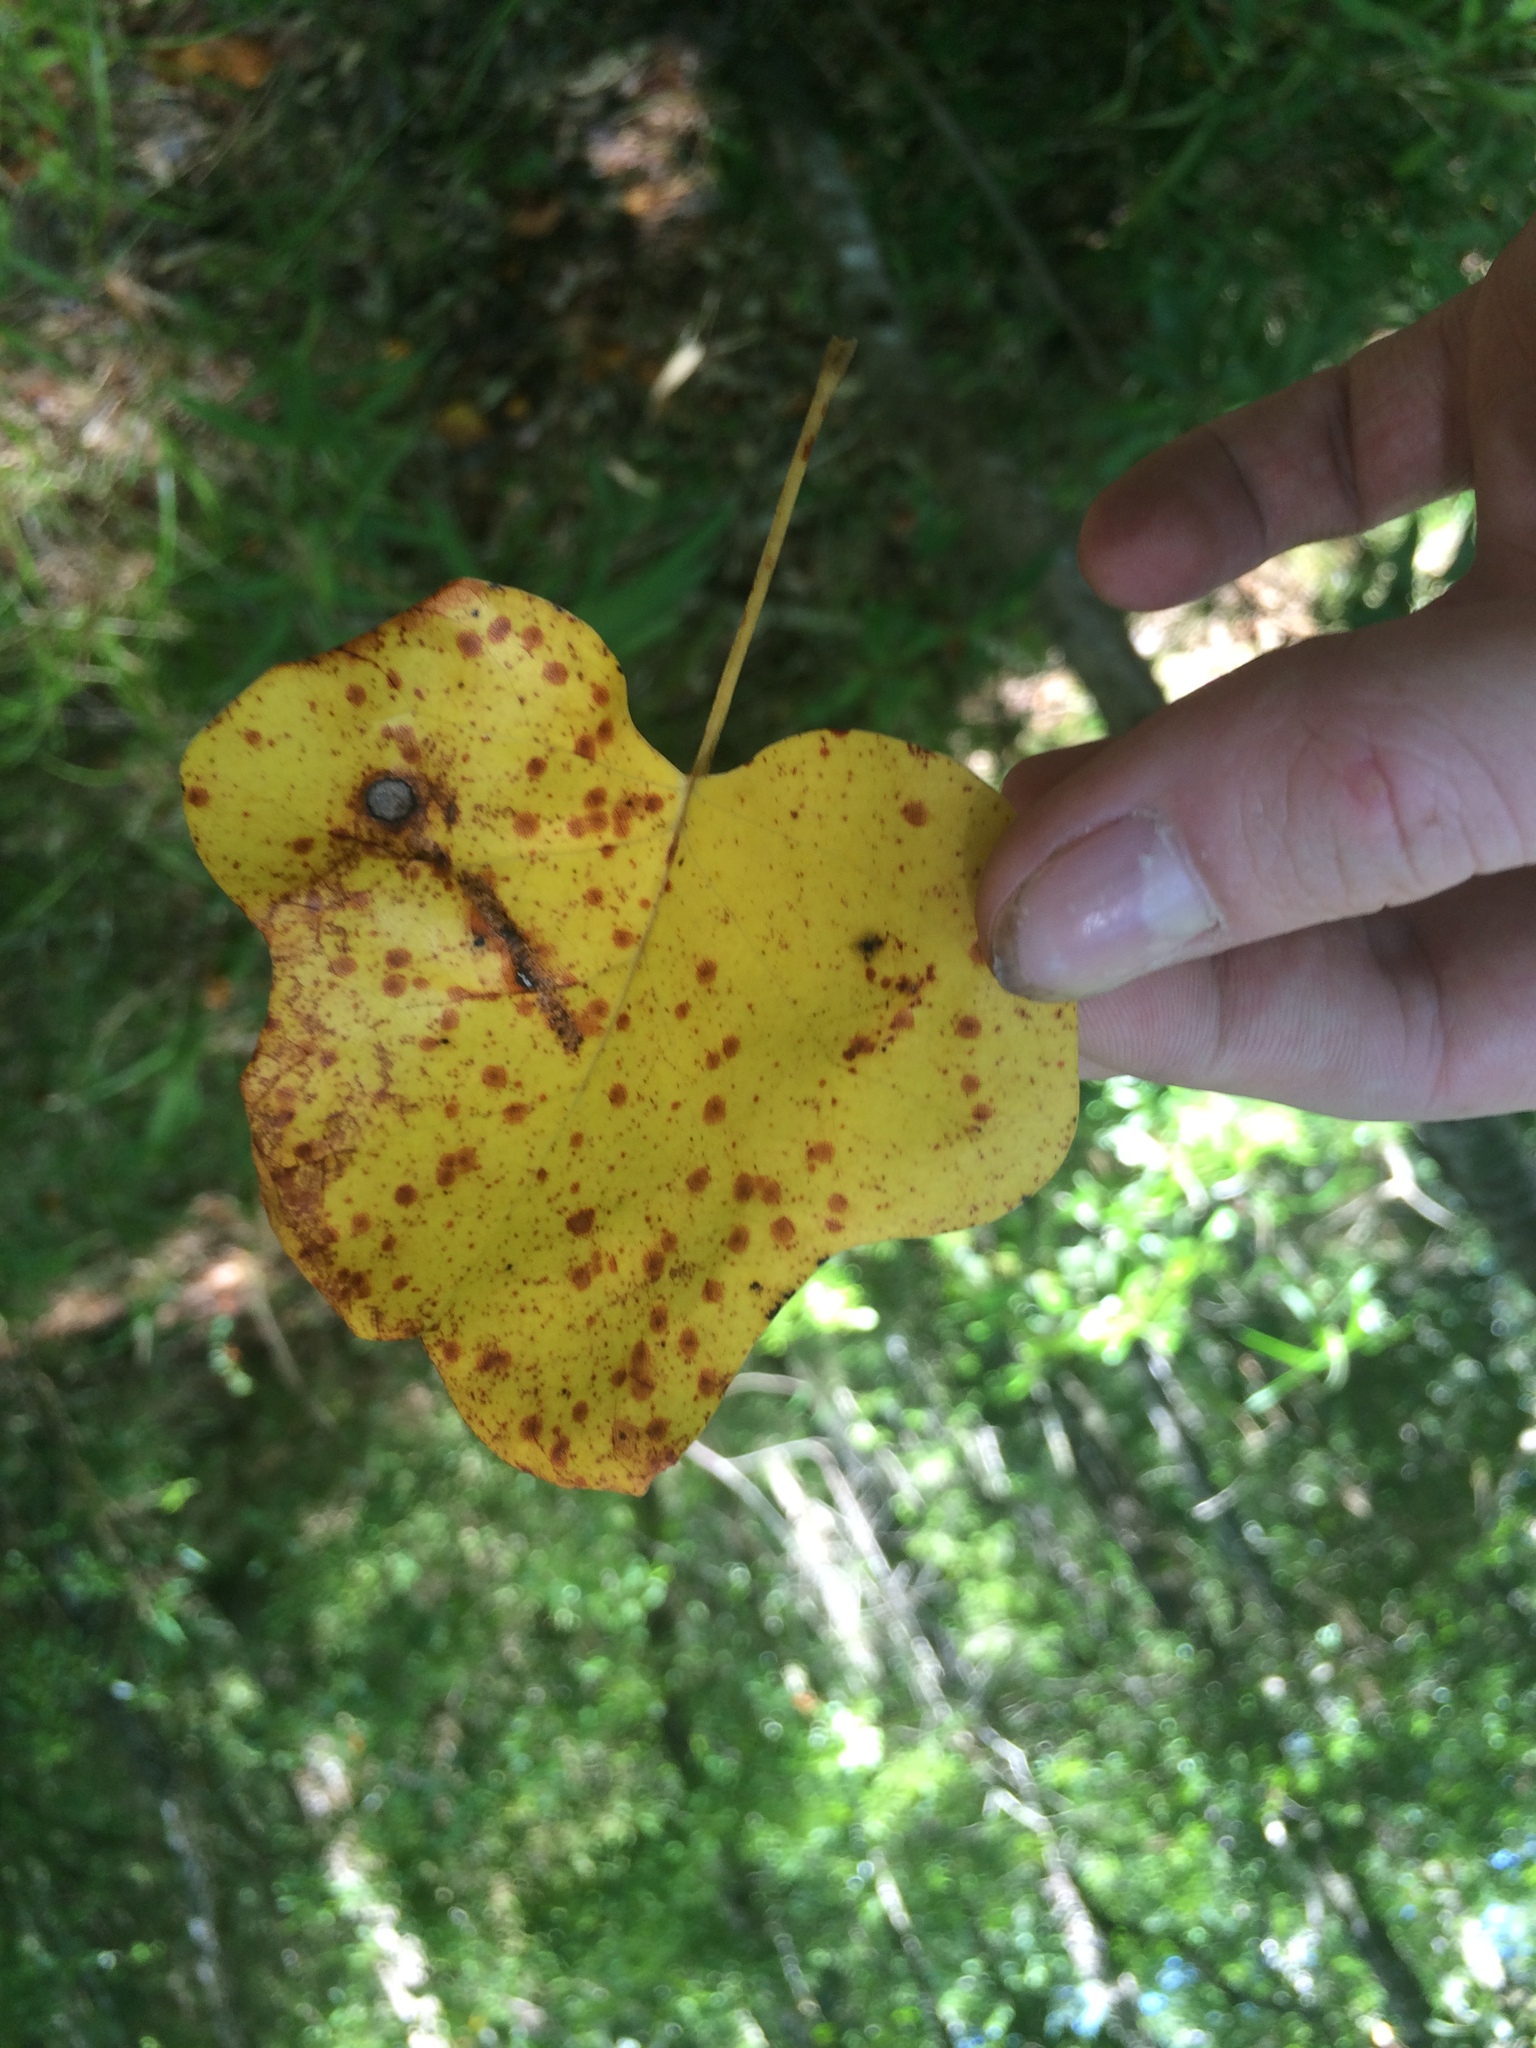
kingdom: Plantae
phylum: Tracheophyta
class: Magnoliopsida
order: Magnoliales
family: Magnoliaceae
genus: Liriodendron
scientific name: Liriodendron tulipifera
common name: Tulip tree
